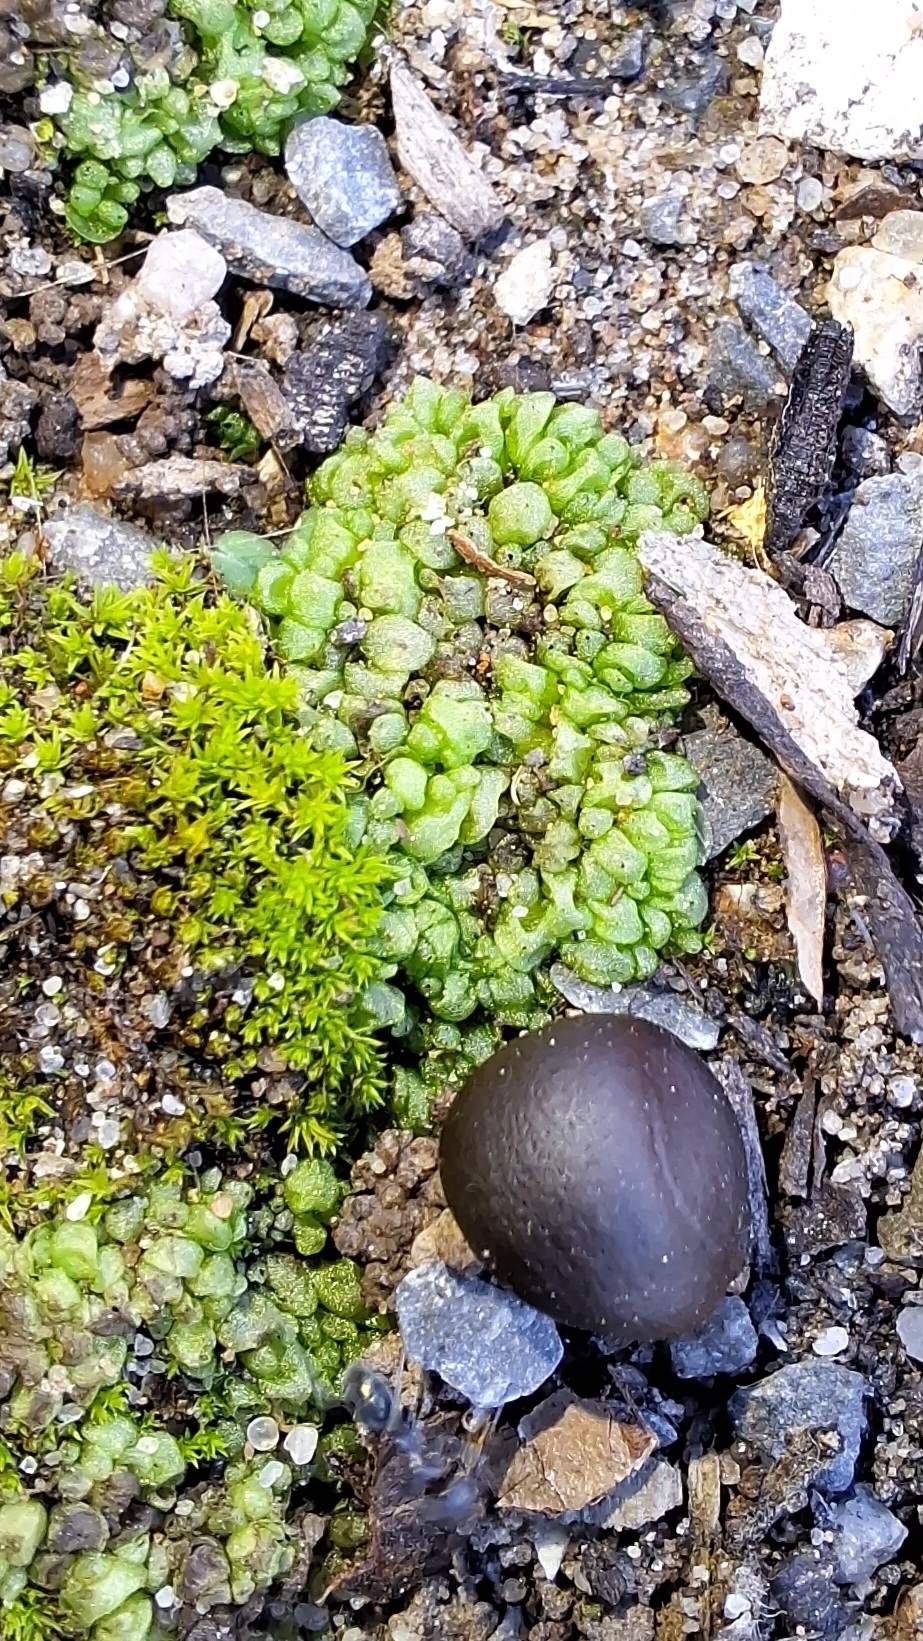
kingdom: Plantae
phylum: Marchantiophyta
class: Marchantiopsida
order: Sphaerocarpales
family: Sphaerocarpaceae
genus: Sphaerocarpos
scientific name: Sphaerocarpos texanus
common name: Texas balloonwort
